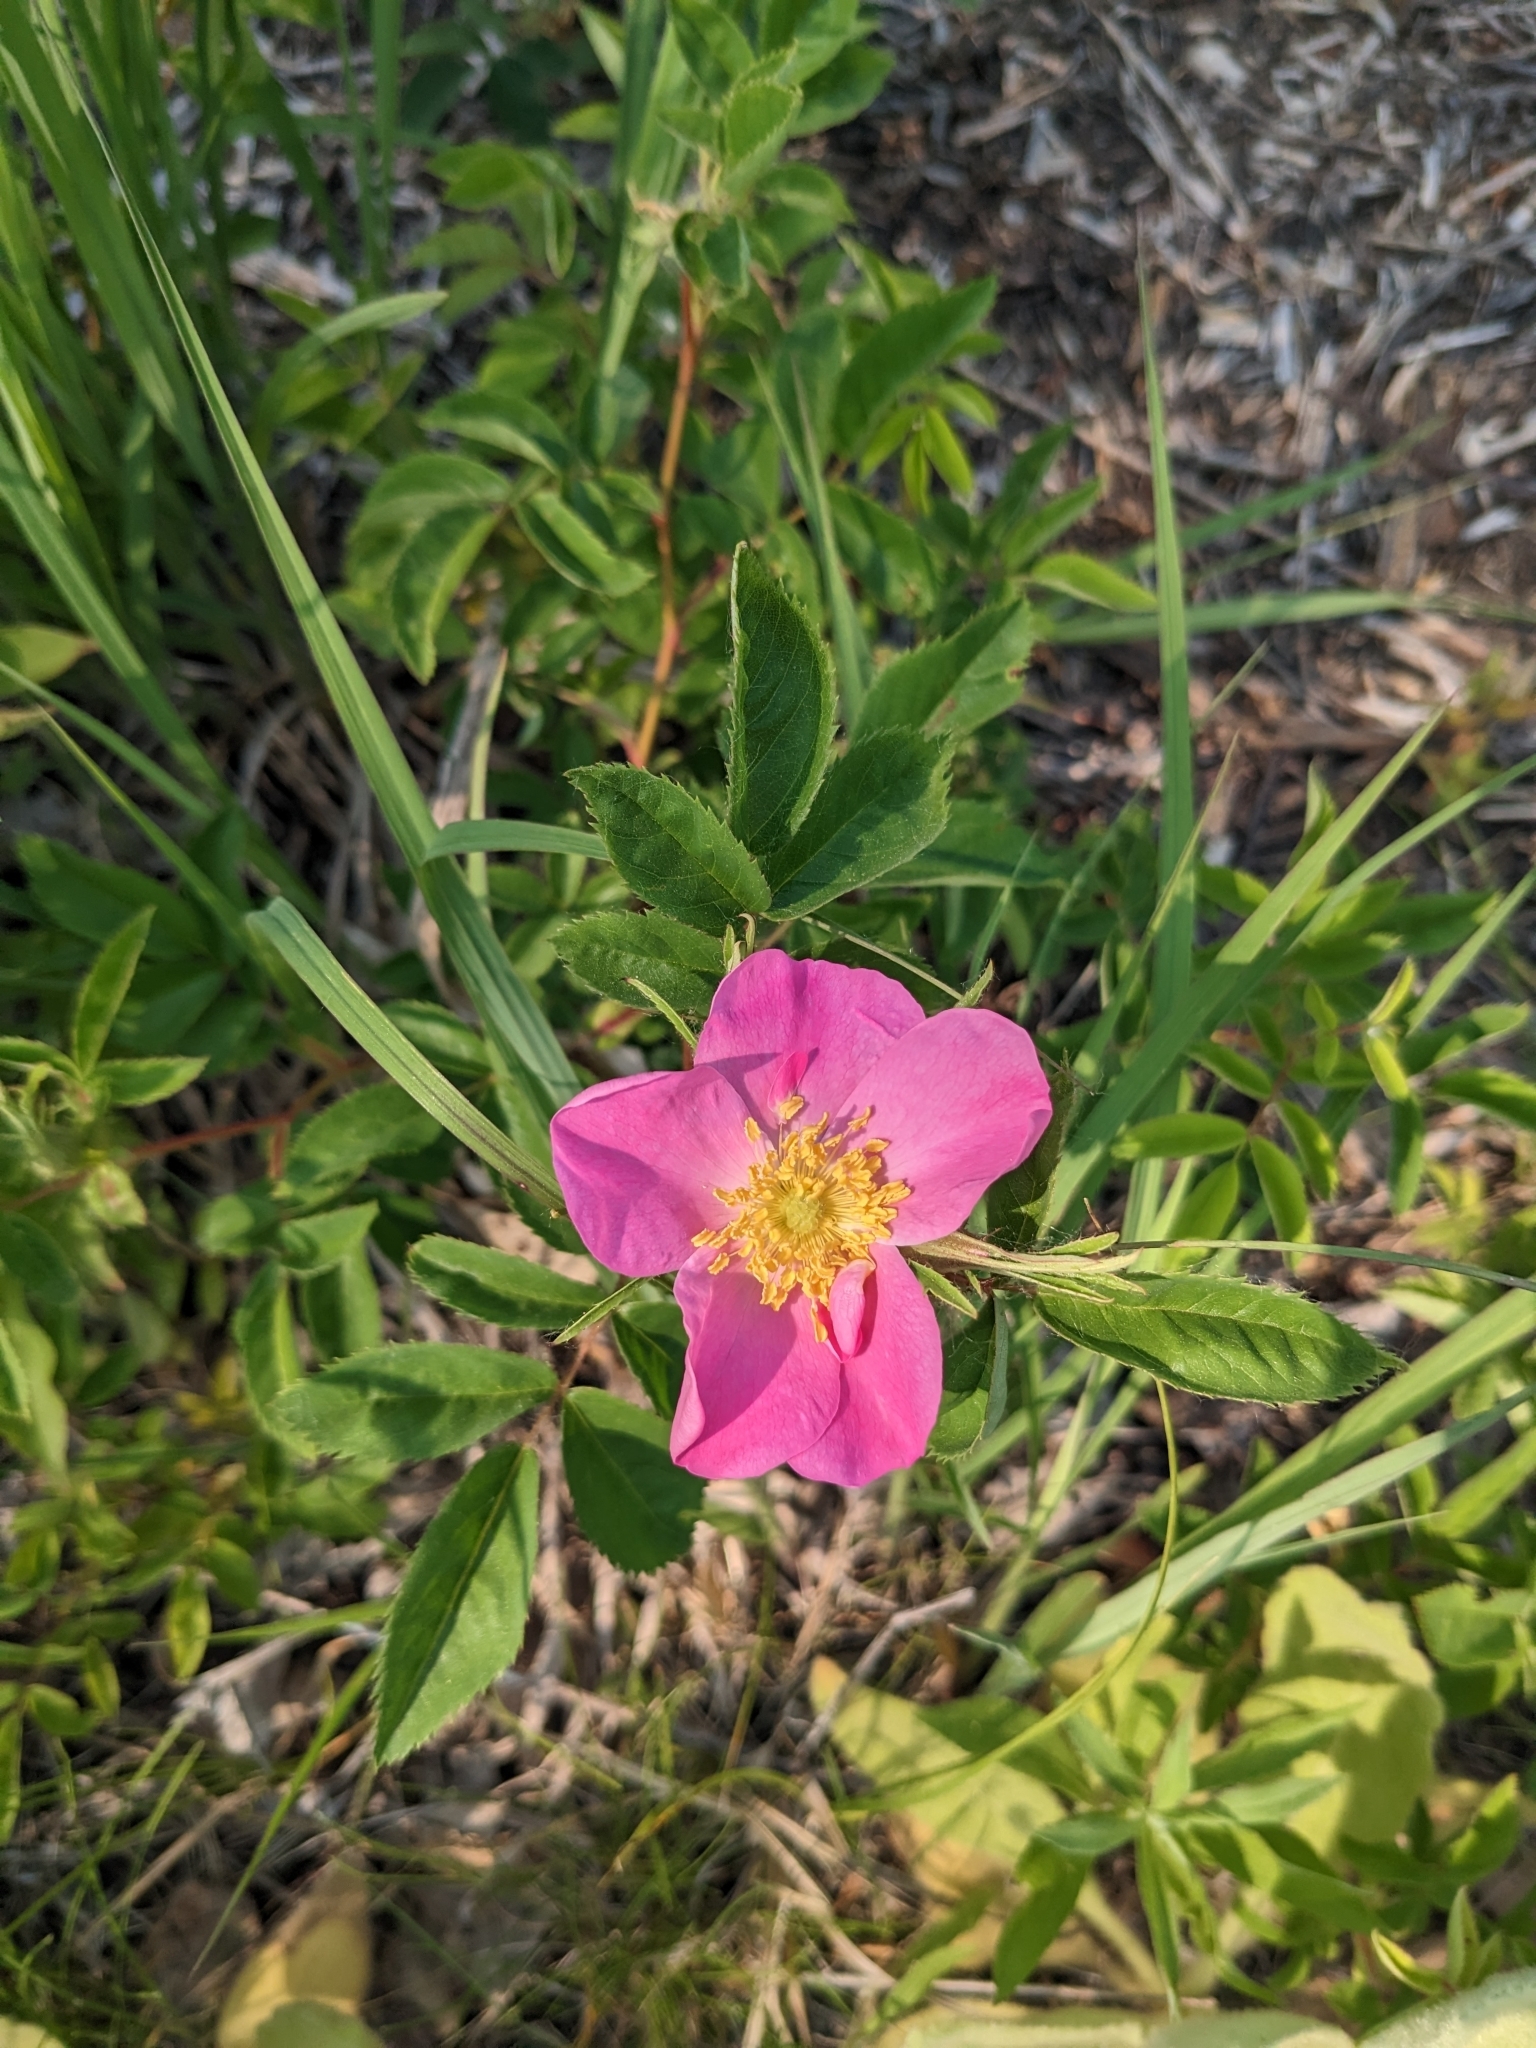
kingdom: Plantae
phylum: Tracheophyta
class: Magnoliopsida
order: Rosales
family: Rosaceae
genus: Rosa
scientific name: Rosa carolina
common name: Pasture rose
